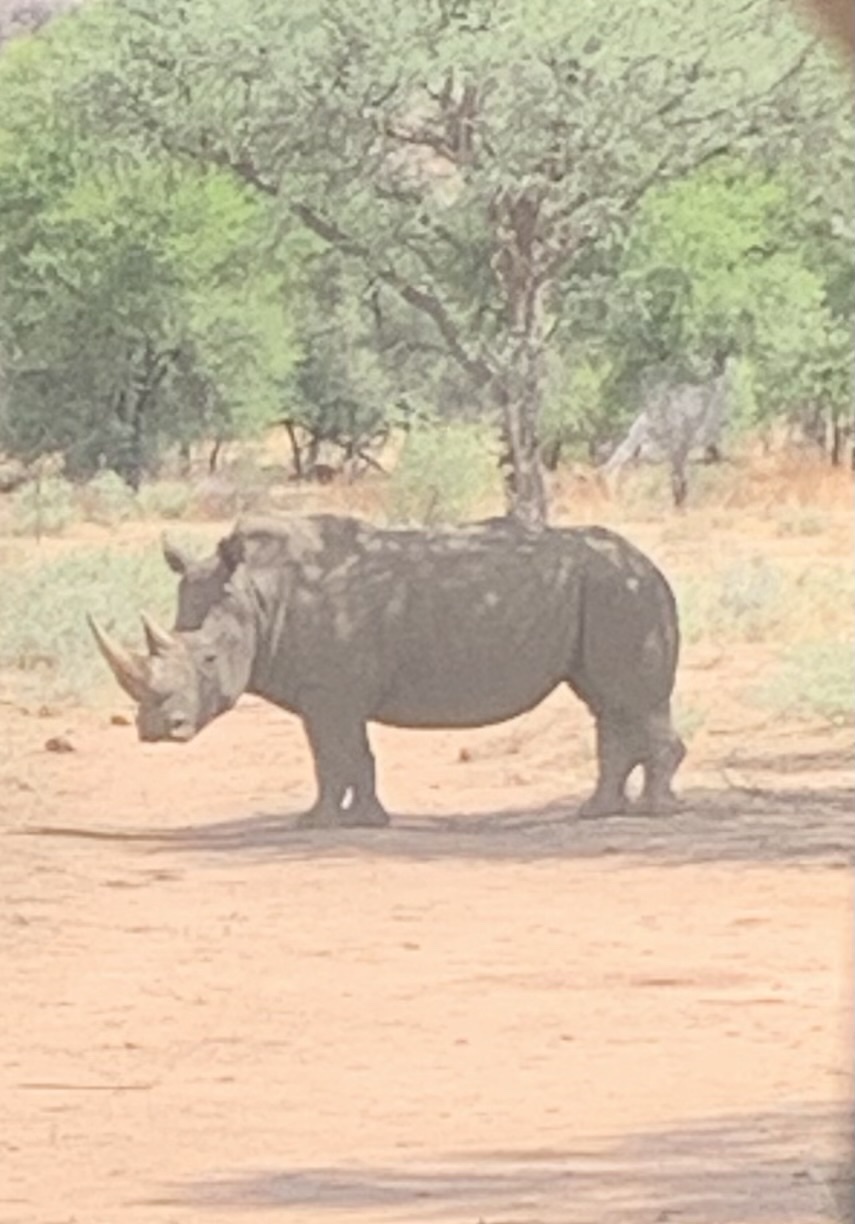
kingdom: Animalia
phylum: Chordata
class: Mammalia
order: Perissodactyla
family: Rhinocerotidae
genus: Ceratotherium
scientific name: Ceratotherium simum
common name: White rhinoceros
